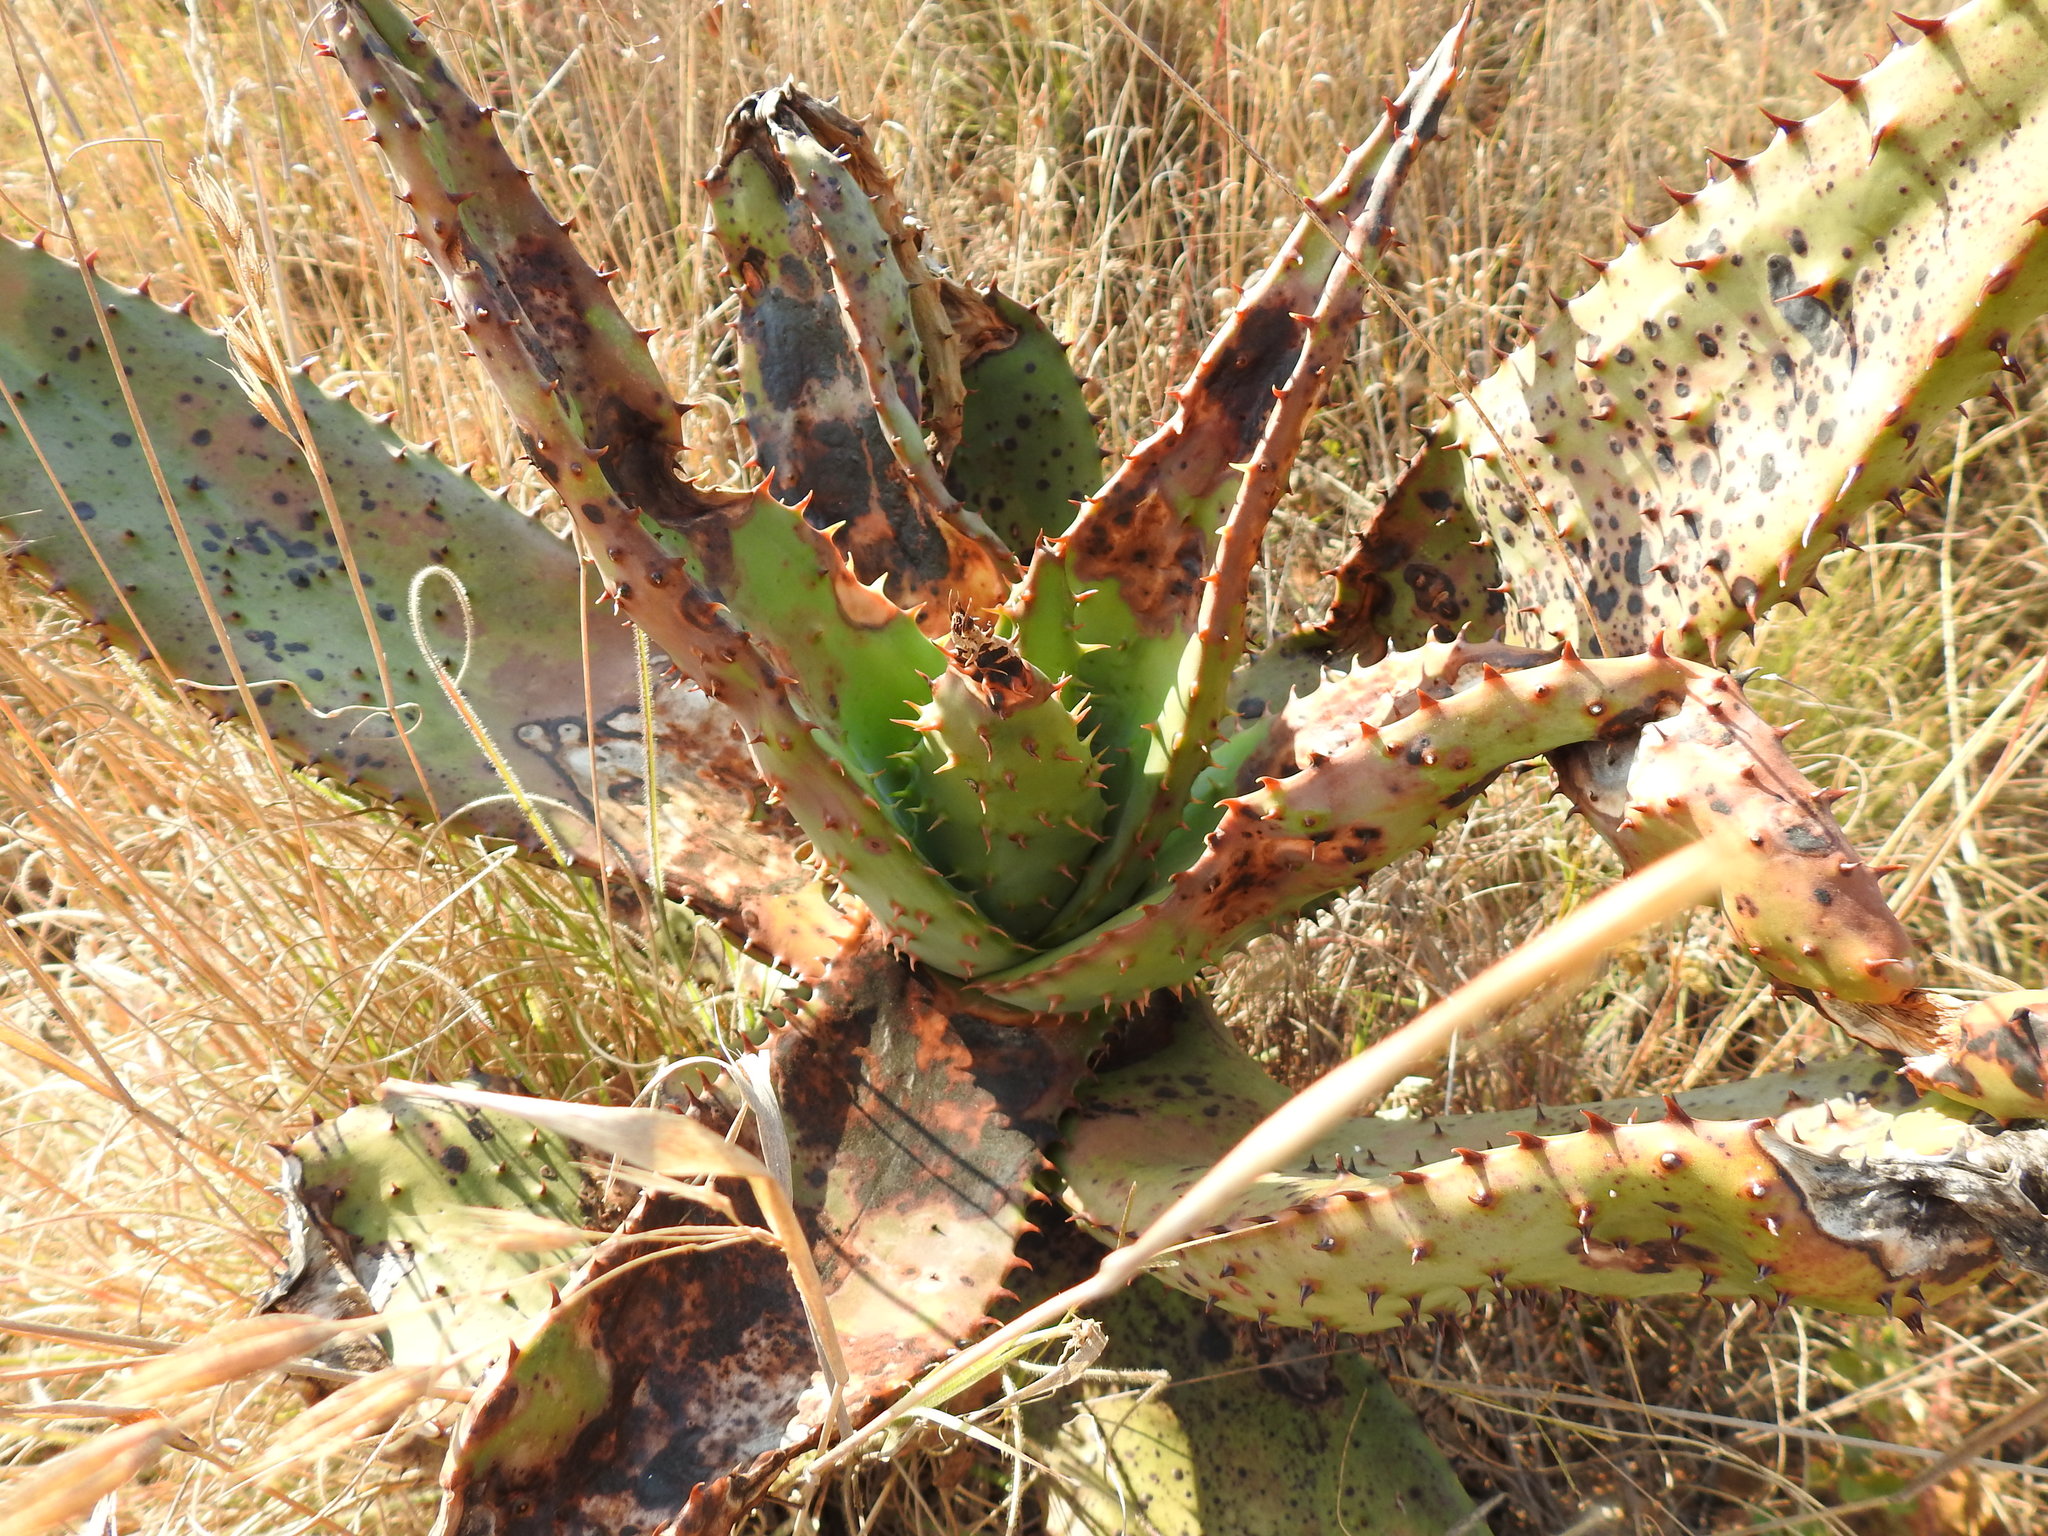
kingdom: Plantae
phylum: Tracheophyta
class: Liliopsida
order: Asparagales
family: Asphodelaceae
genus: Aloe
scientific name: Aloe marlothii
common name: Flat-flowered aloe
